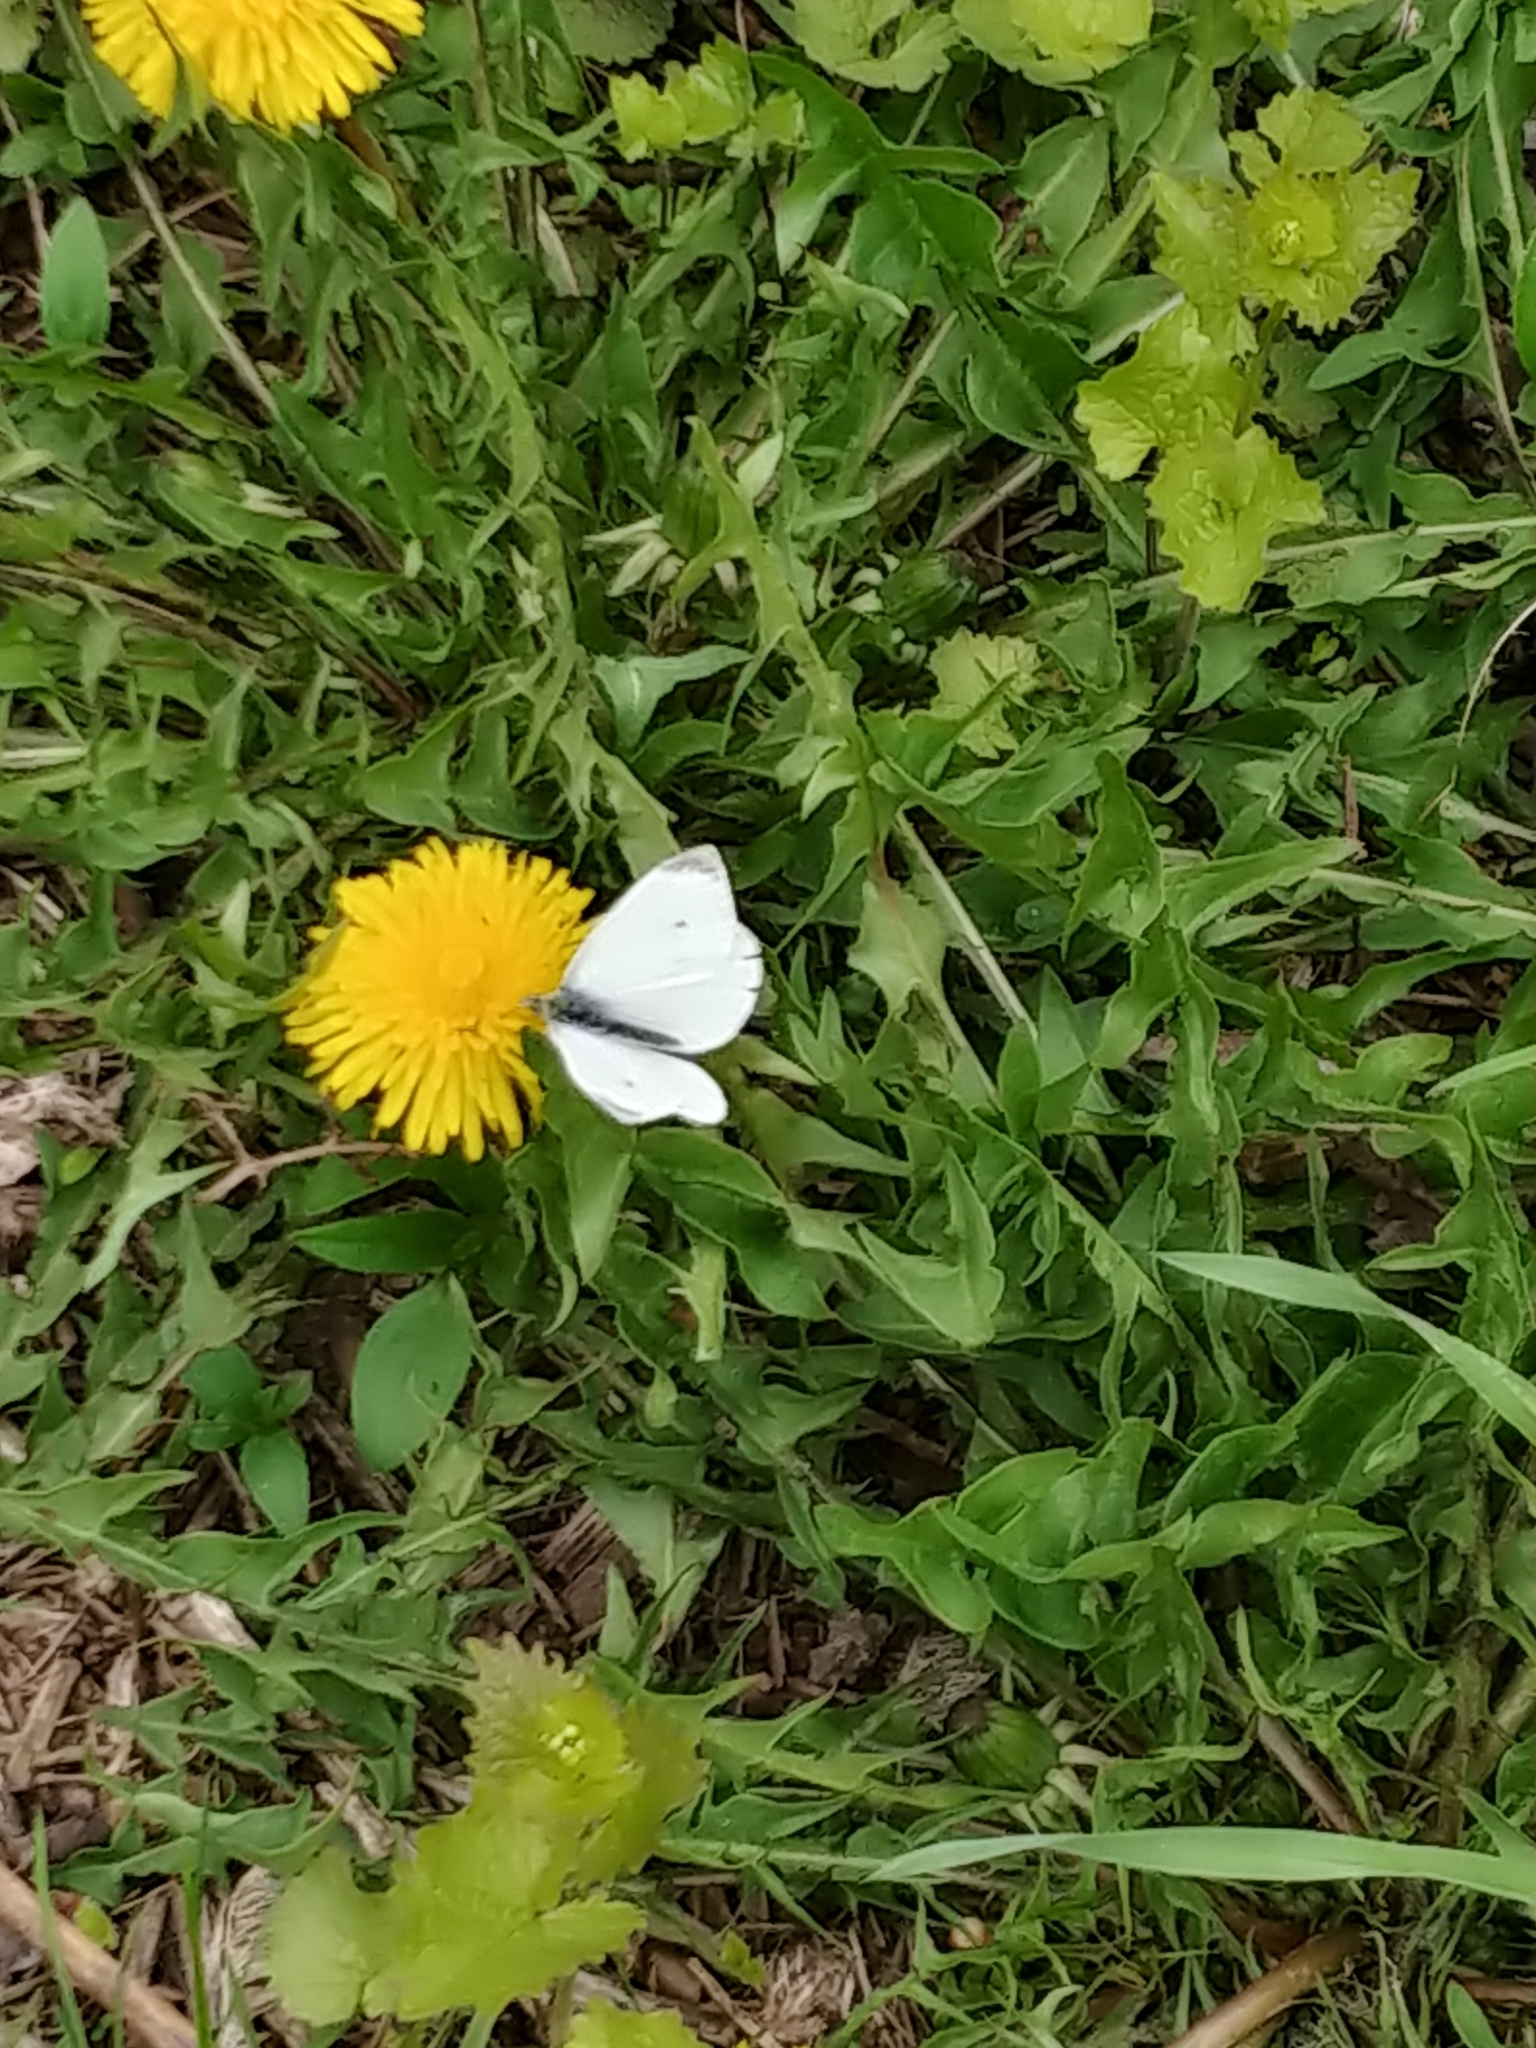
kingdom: Animalia
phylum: Arthropoda
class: Insecta
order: Lepidoptera
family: Pieridae
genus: Pieris
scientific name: Pieris rapae
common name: Small white
